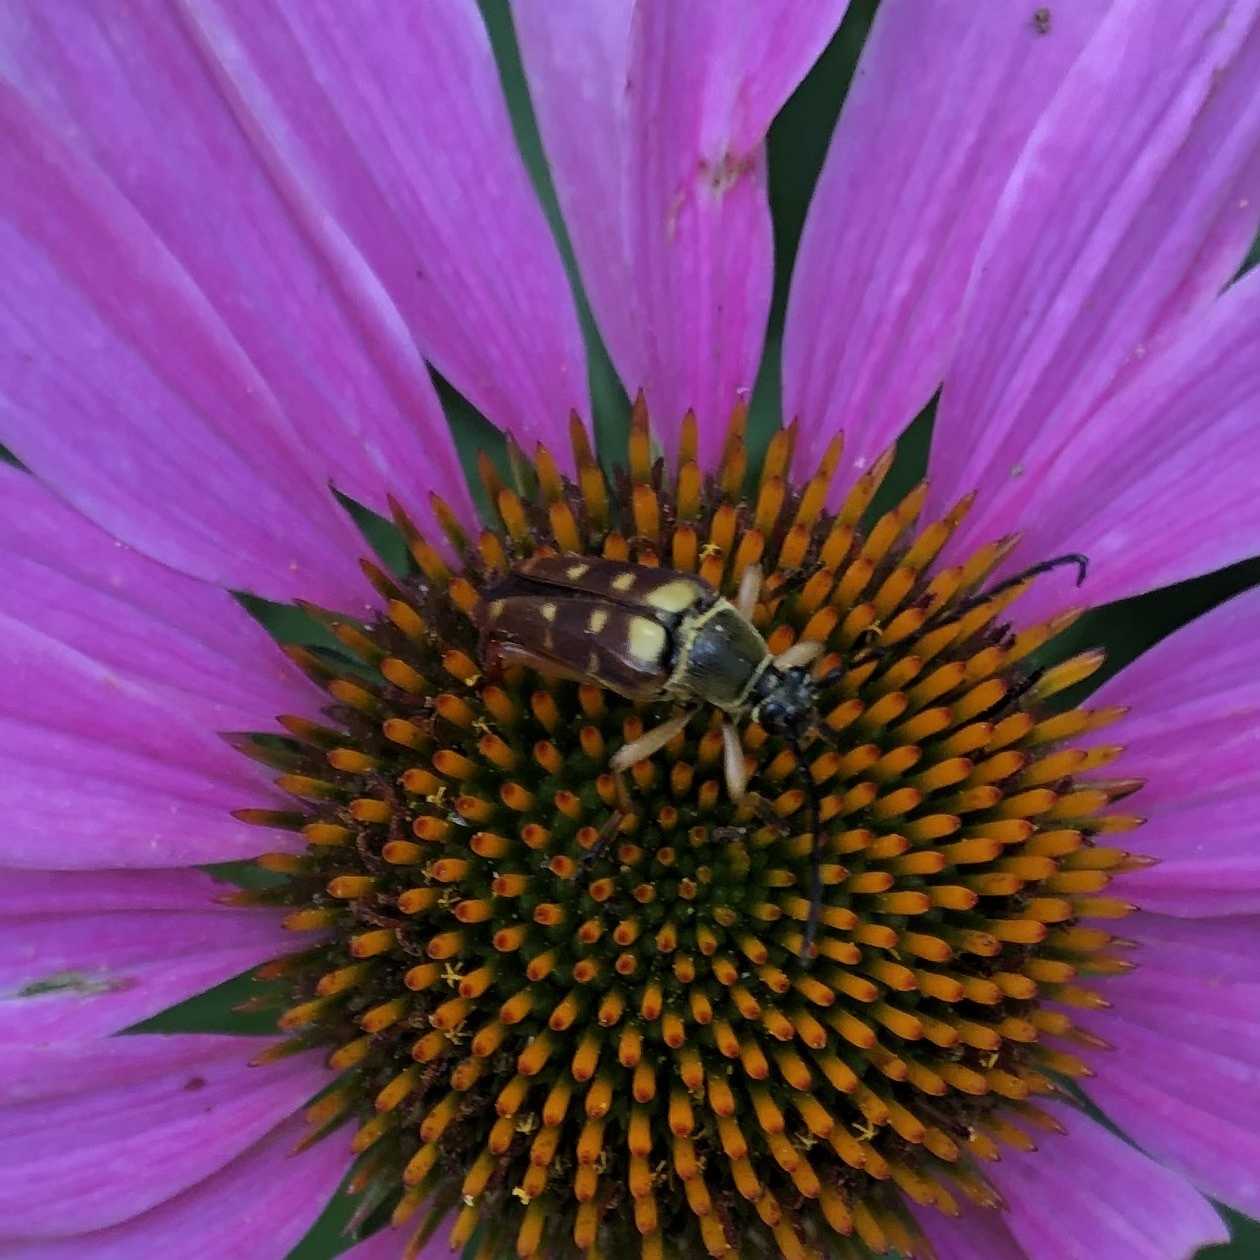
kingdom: Animalia
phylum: Arthropoda
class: Insecta
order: Coleoptera
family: Cerambycidae
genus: Typocerus
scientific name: Typocerus velutinus
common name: Banded longhorn beetle
